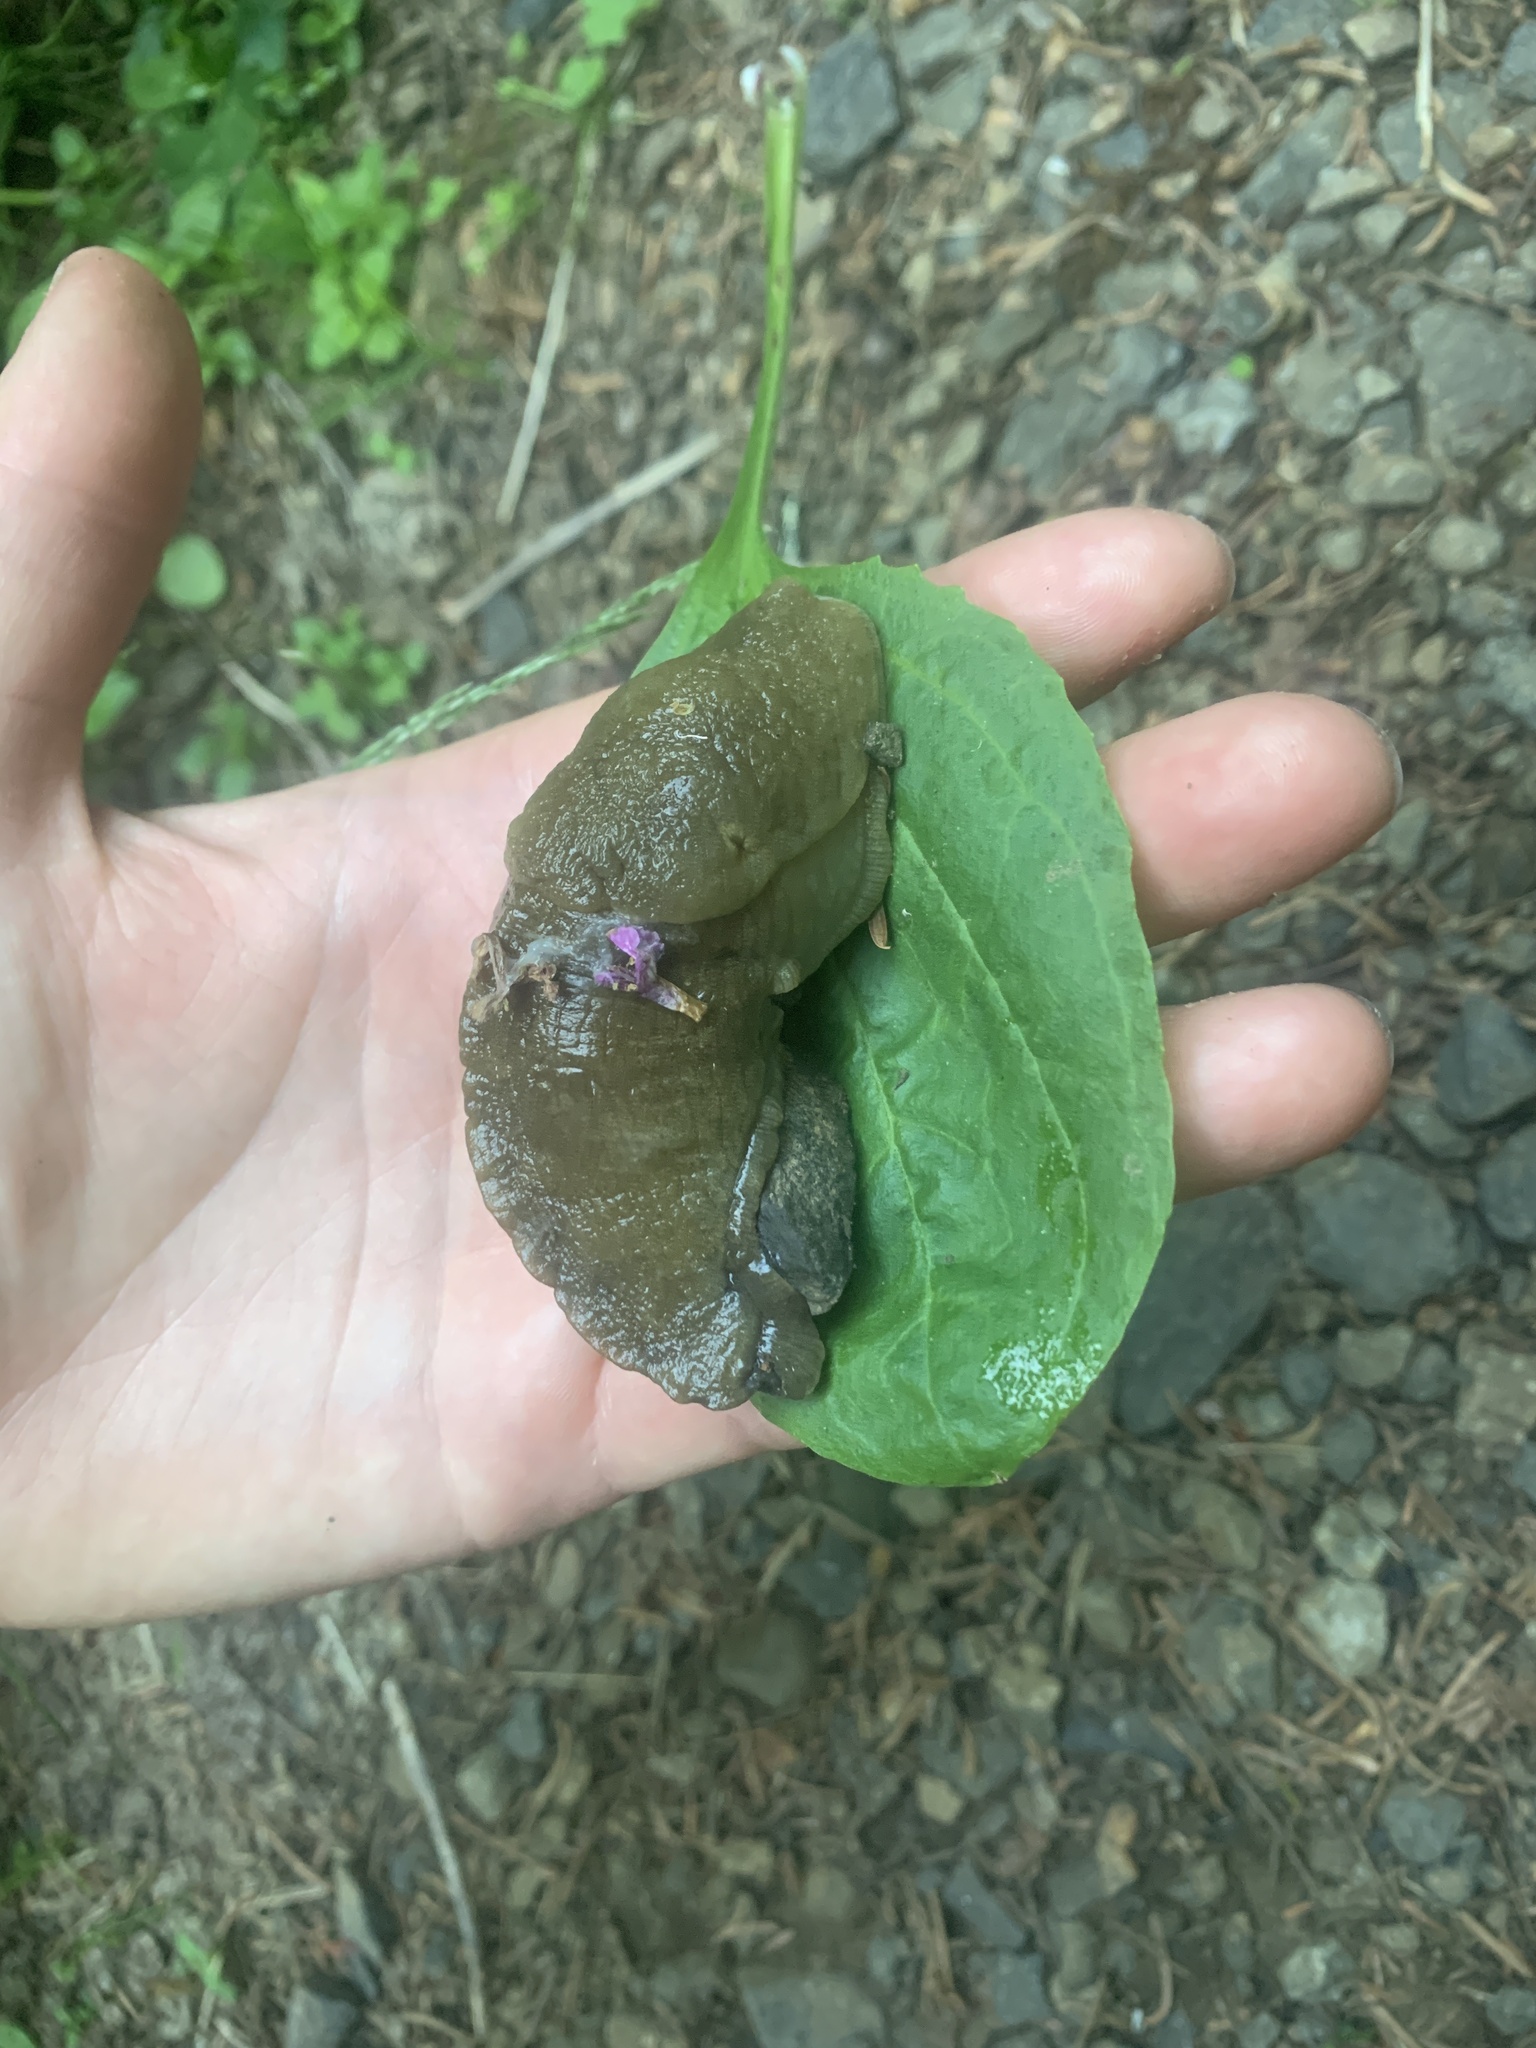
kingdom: Animalia
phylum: Mollusca
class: Gastropoda
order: Stylommatophora
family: Ariolimacidae
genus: Ariolimax
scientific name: Ariolimax columbianus
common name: Pacific banana slug
